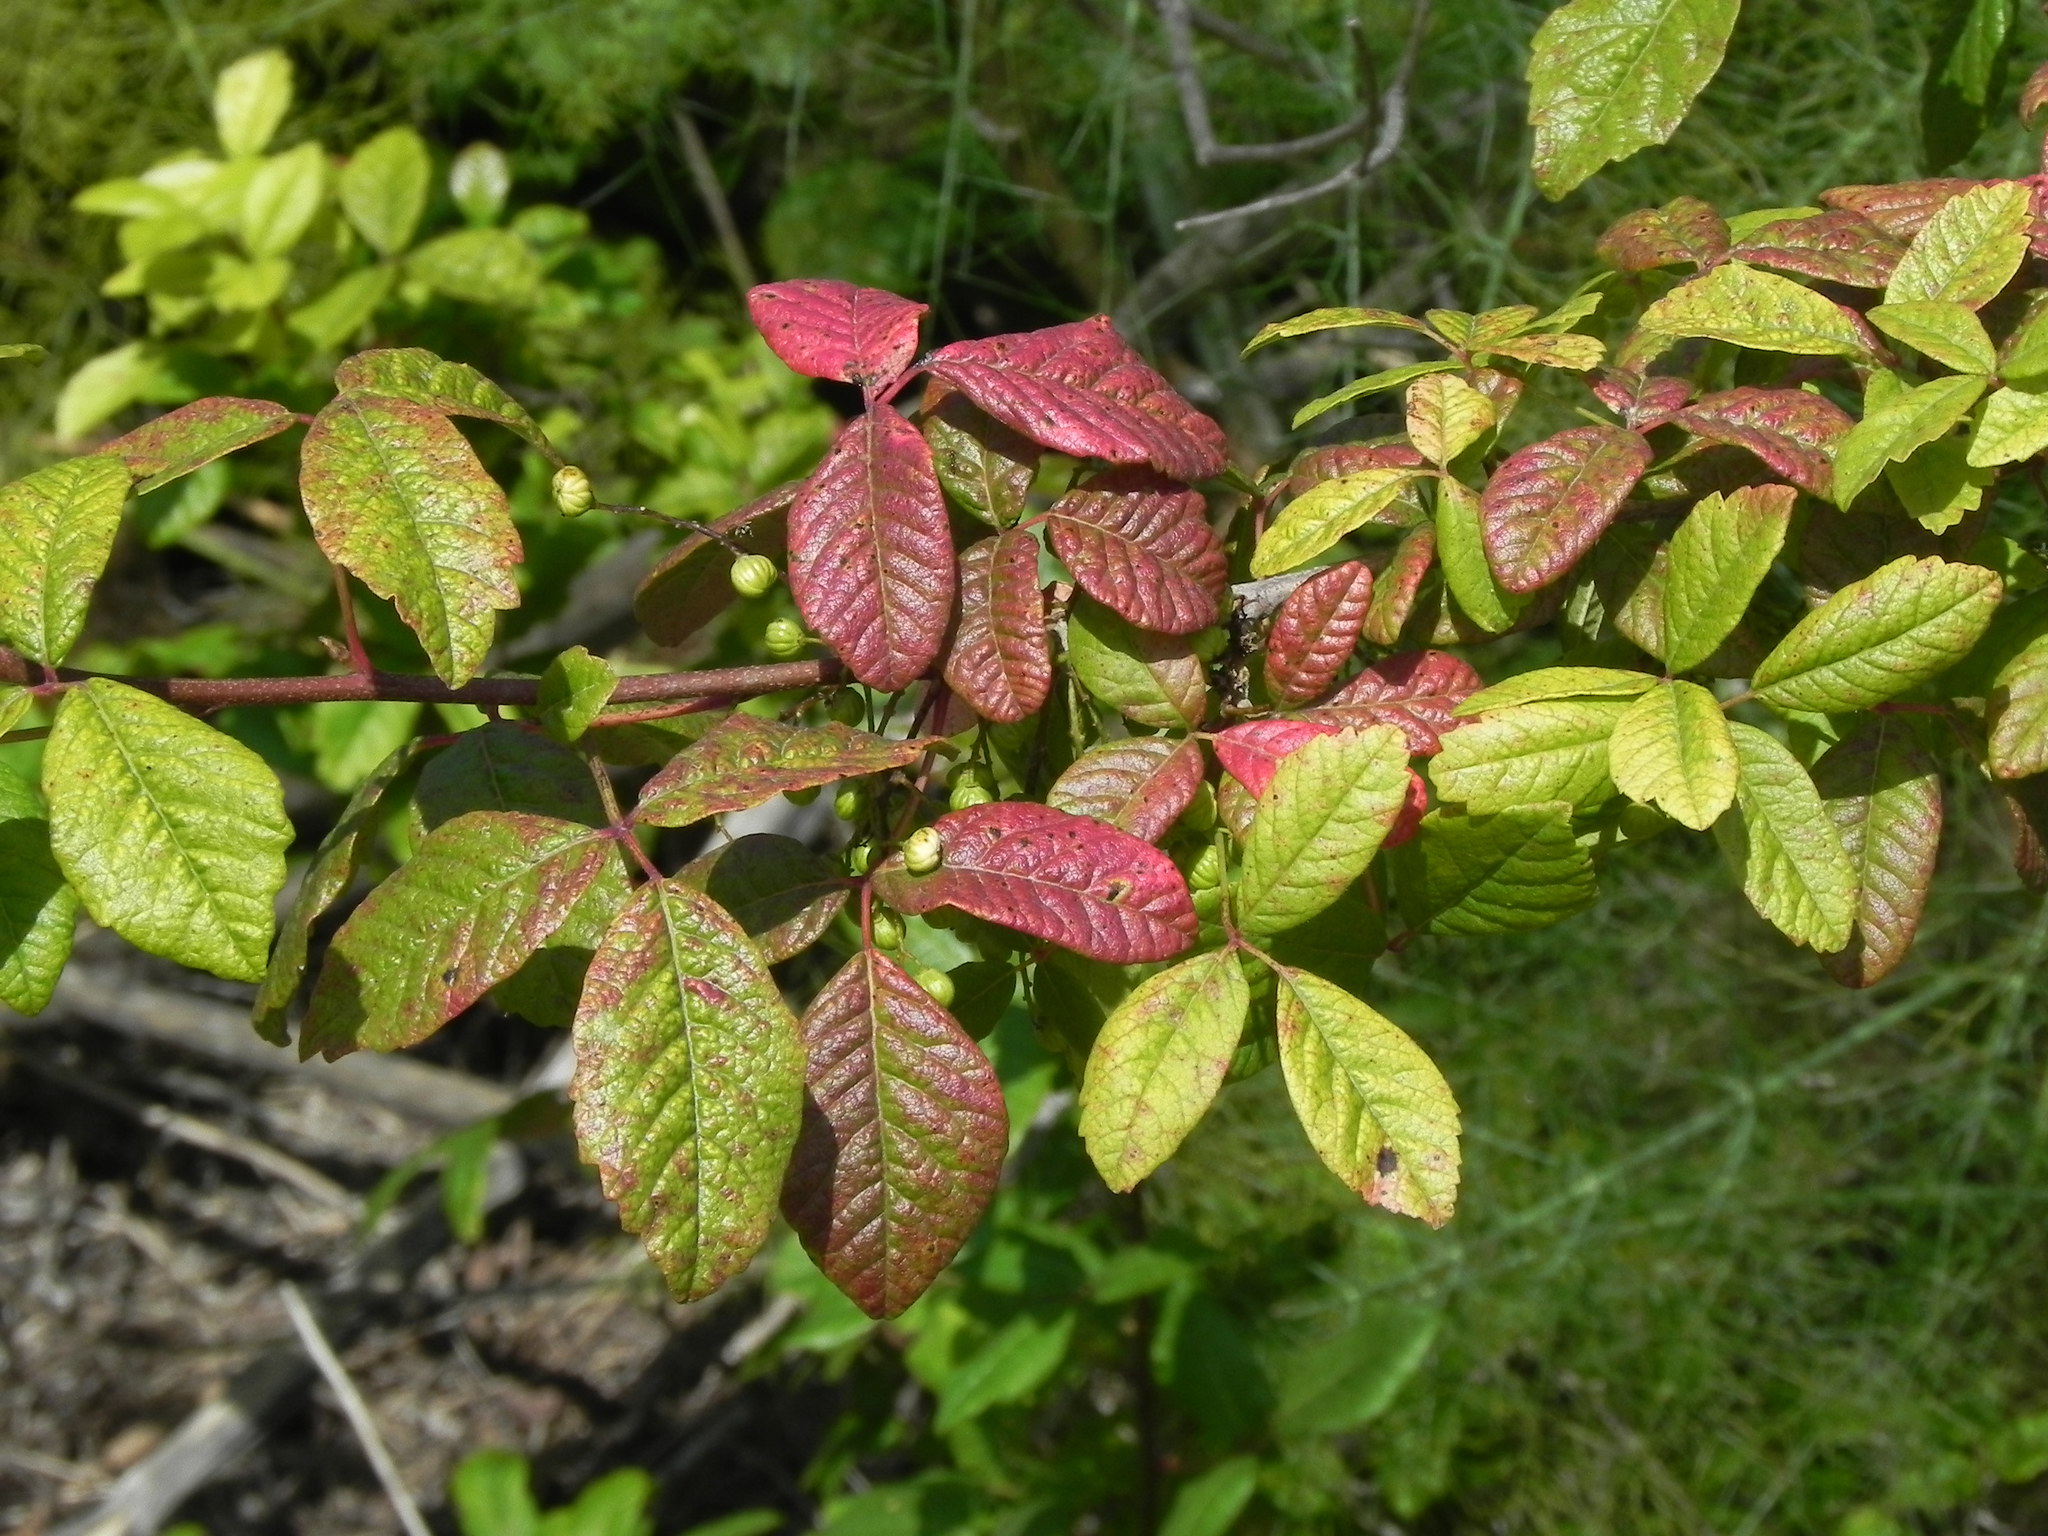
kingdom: Plantae
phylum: Tracheophyta
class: Magnoliopsida
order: Sapindales
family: Anacardiaceae
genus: Toxicodendron
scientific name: Toxicodendron diversilobum
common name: Pacific poison-oak
